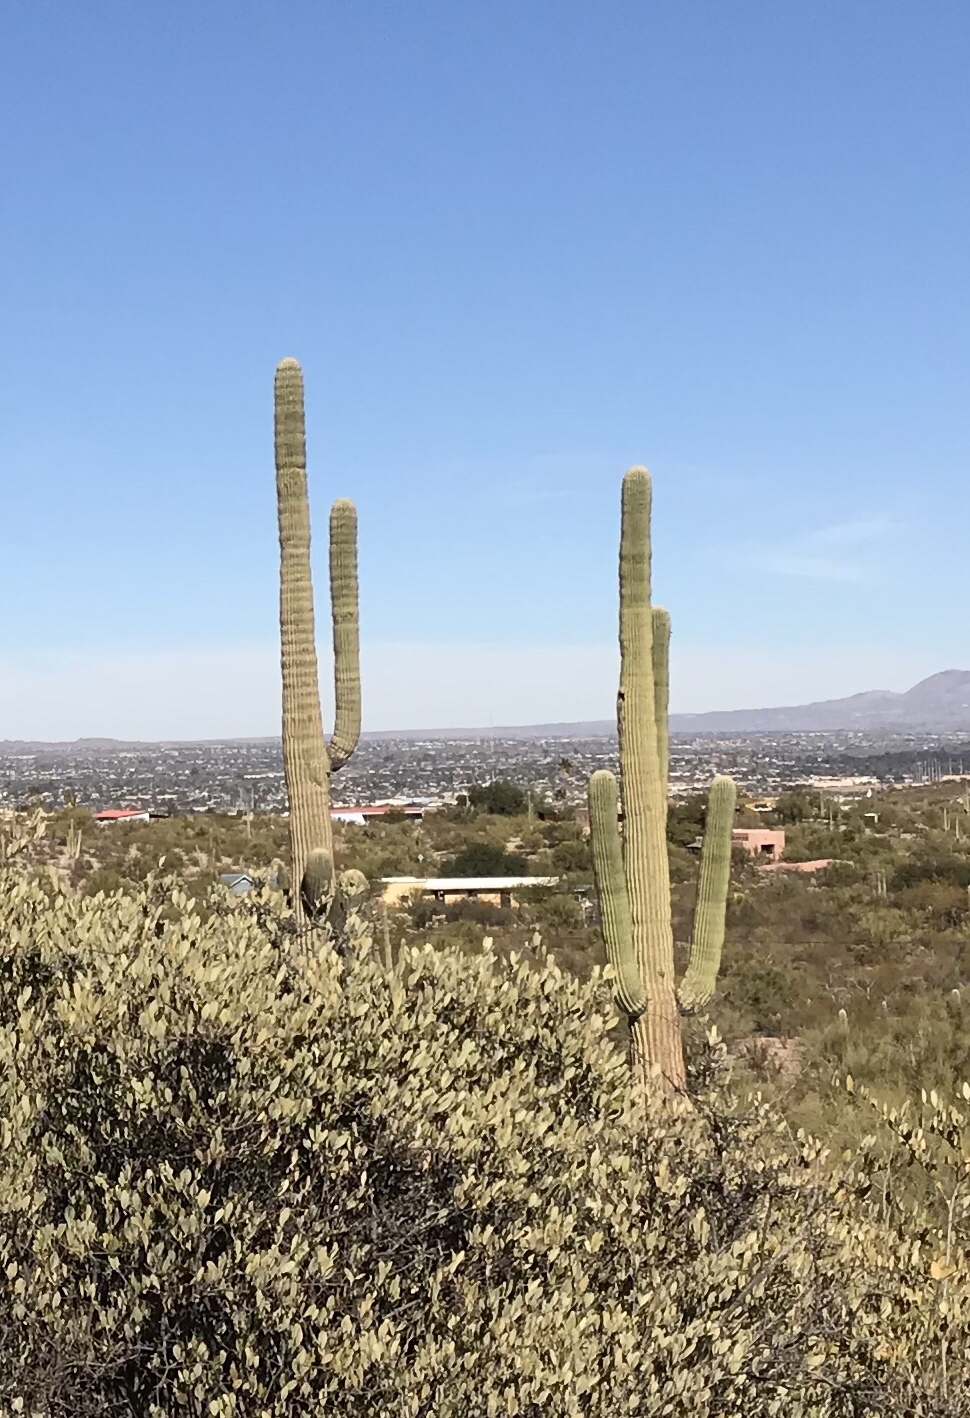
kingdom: Plantae
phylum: Tracheophyta
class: Magnoliopsida
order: Caryophyllales
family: Cactaceae
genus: Carnegiea
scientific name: Carnegiea gigantea
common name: Saguaro
